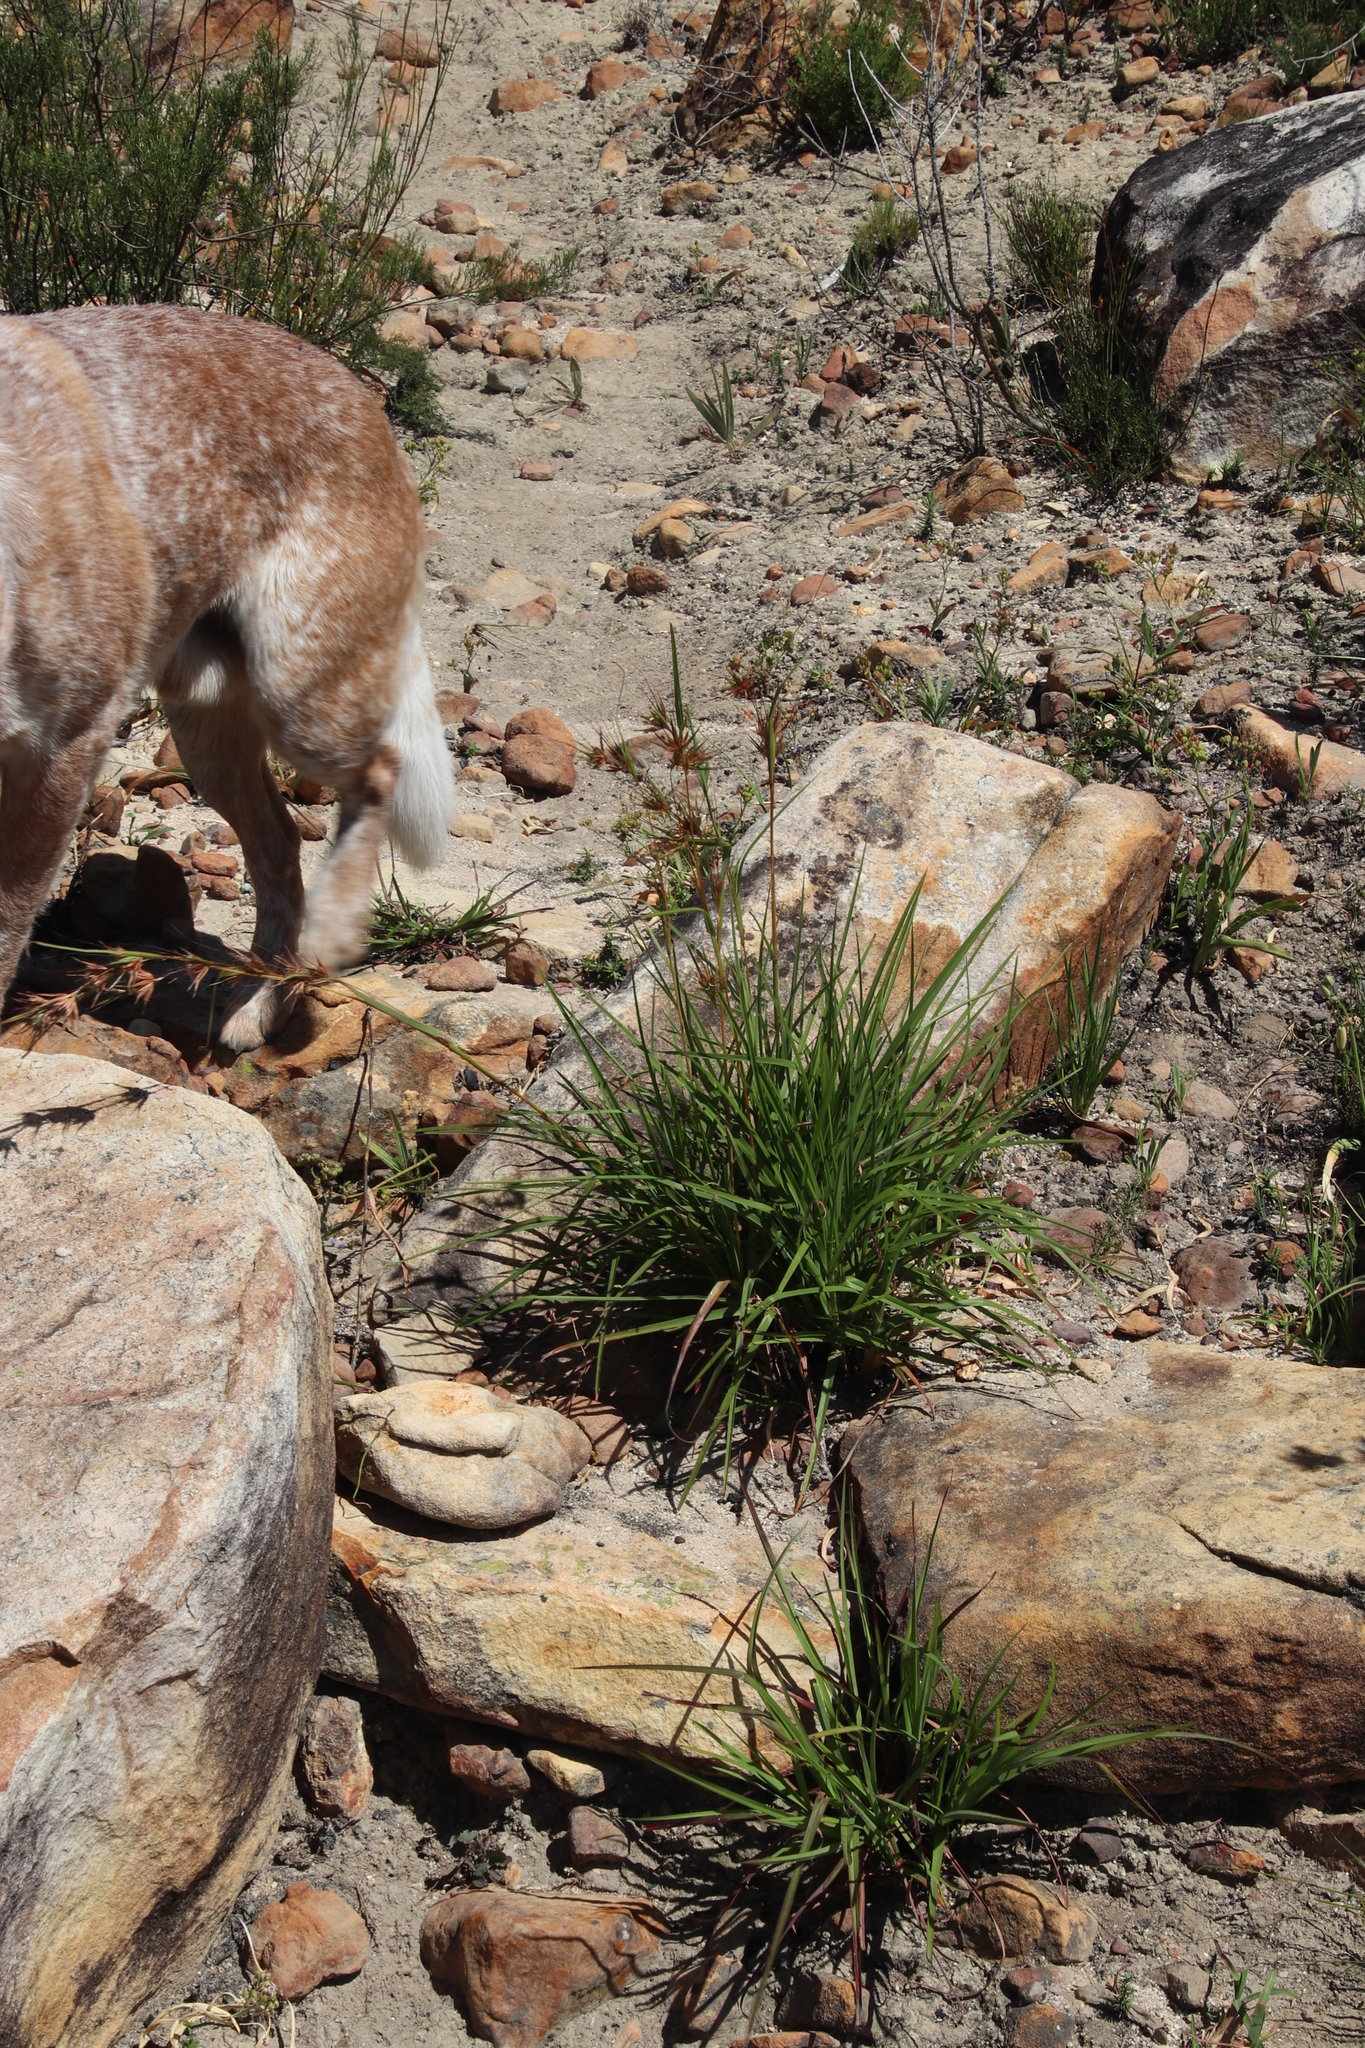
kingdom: Plantae
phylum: Tracheophyta
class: Liliopsida
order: Poales
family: Poaceae
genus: Themeda
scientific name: Themeda triandra
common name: Kangaroo grass
